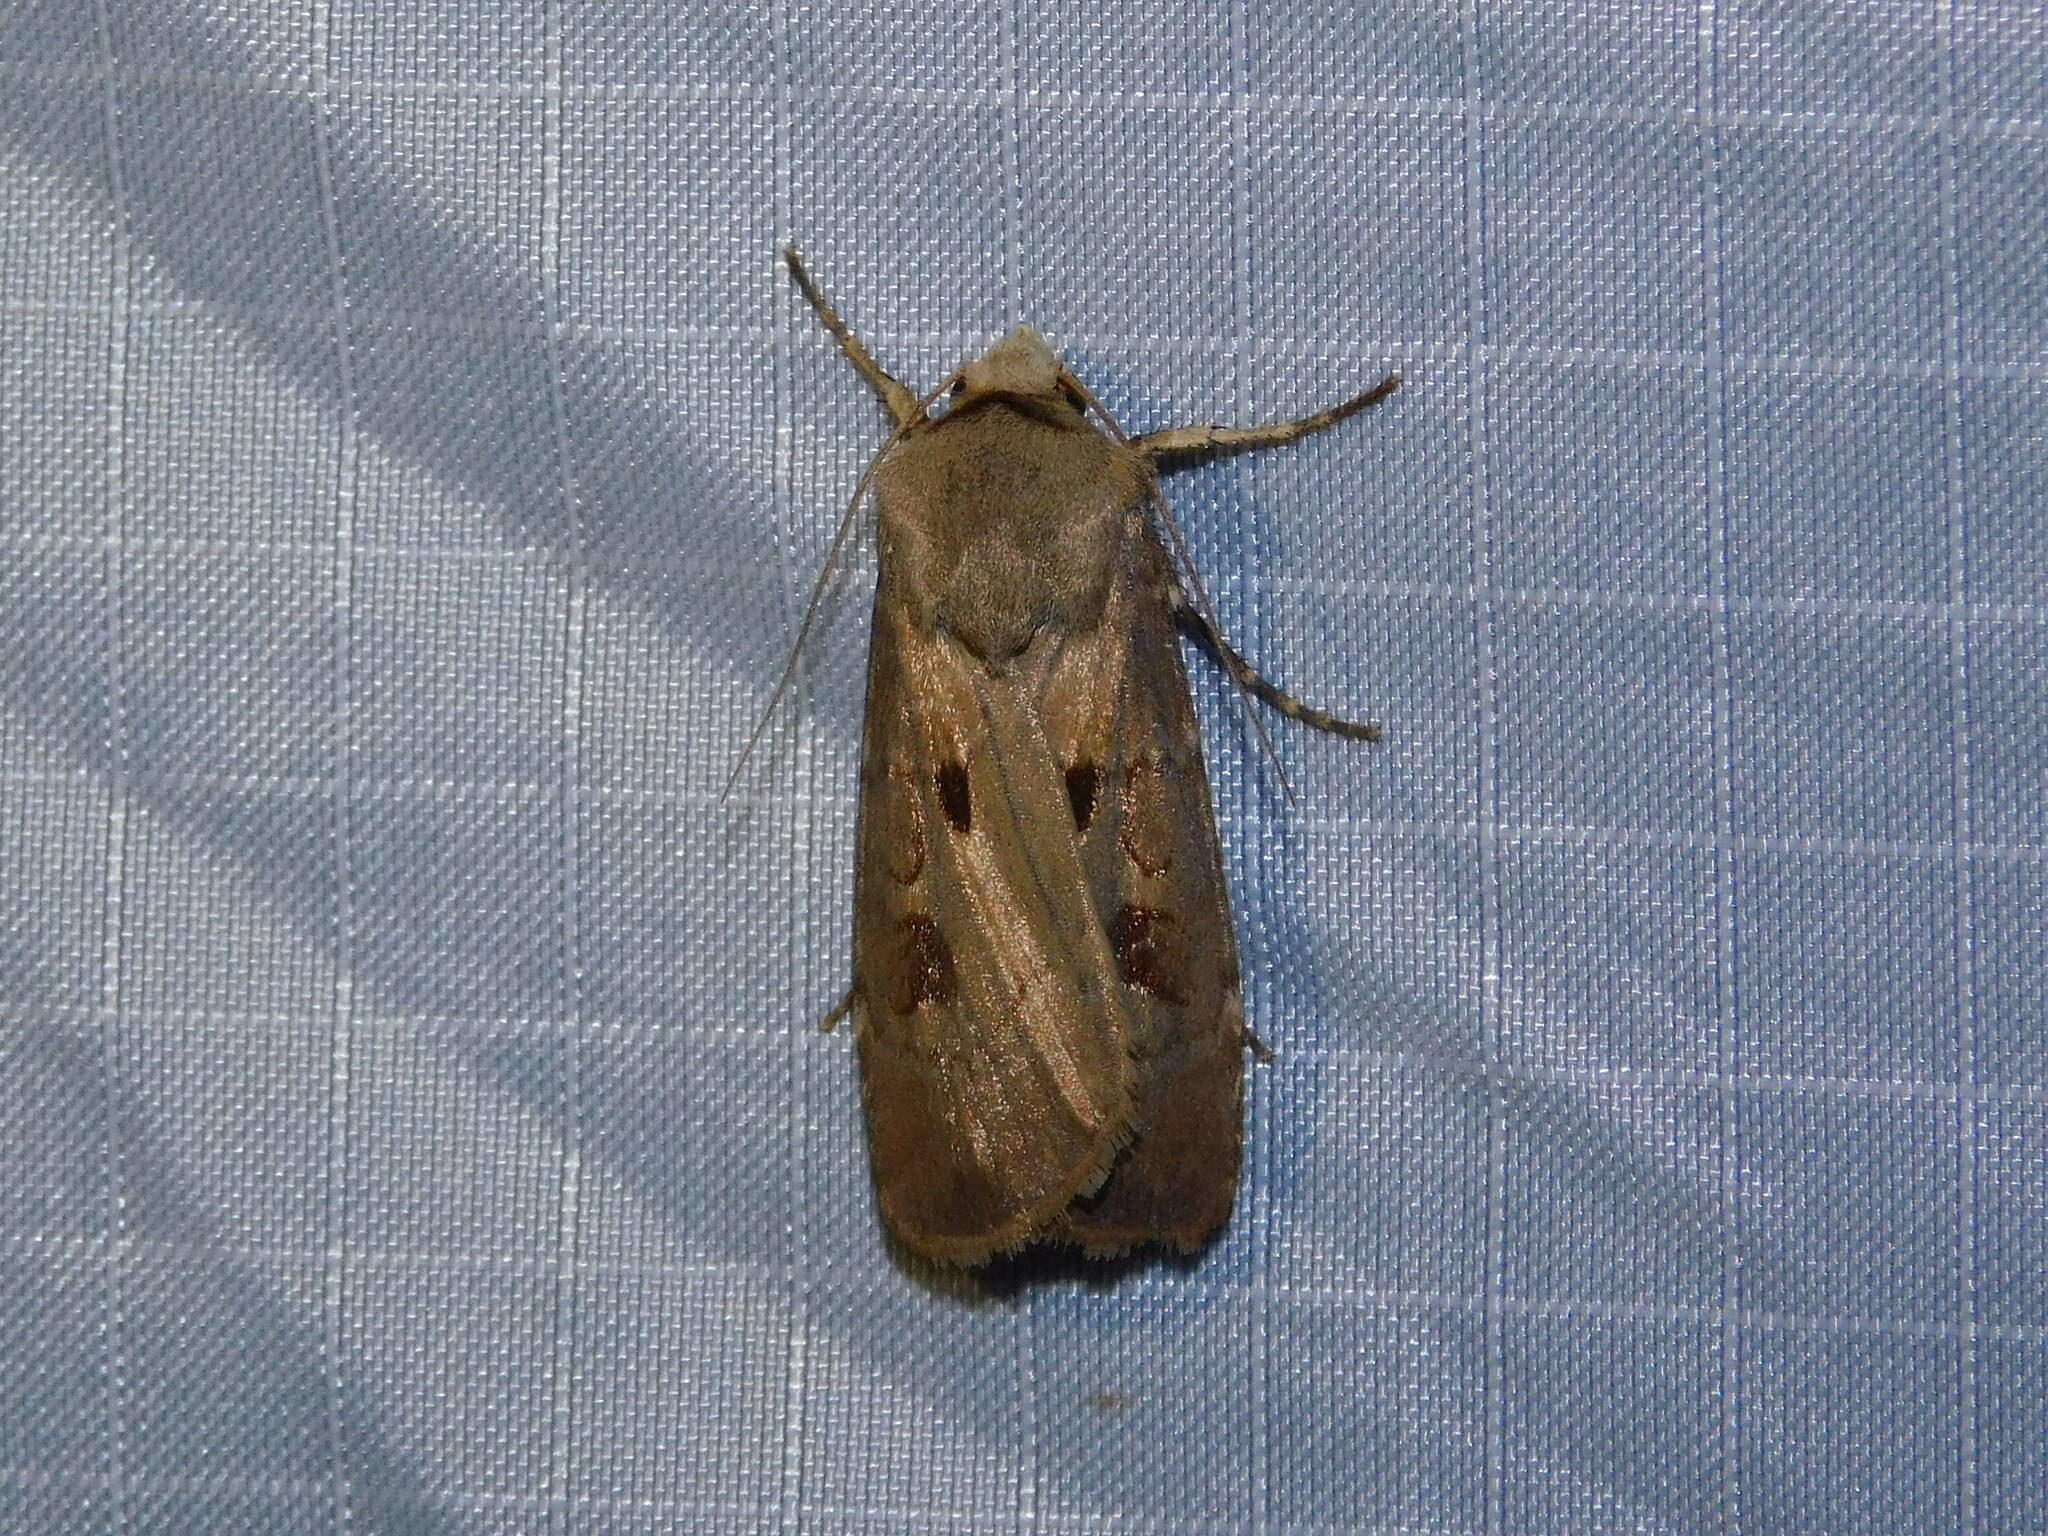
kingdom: Animalia
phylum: Arthropoda
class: Insecta
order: Lepidoptera
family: Noctuidae
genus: Agrotis
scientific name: Agrotis exclamationis
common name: Heart and dart
